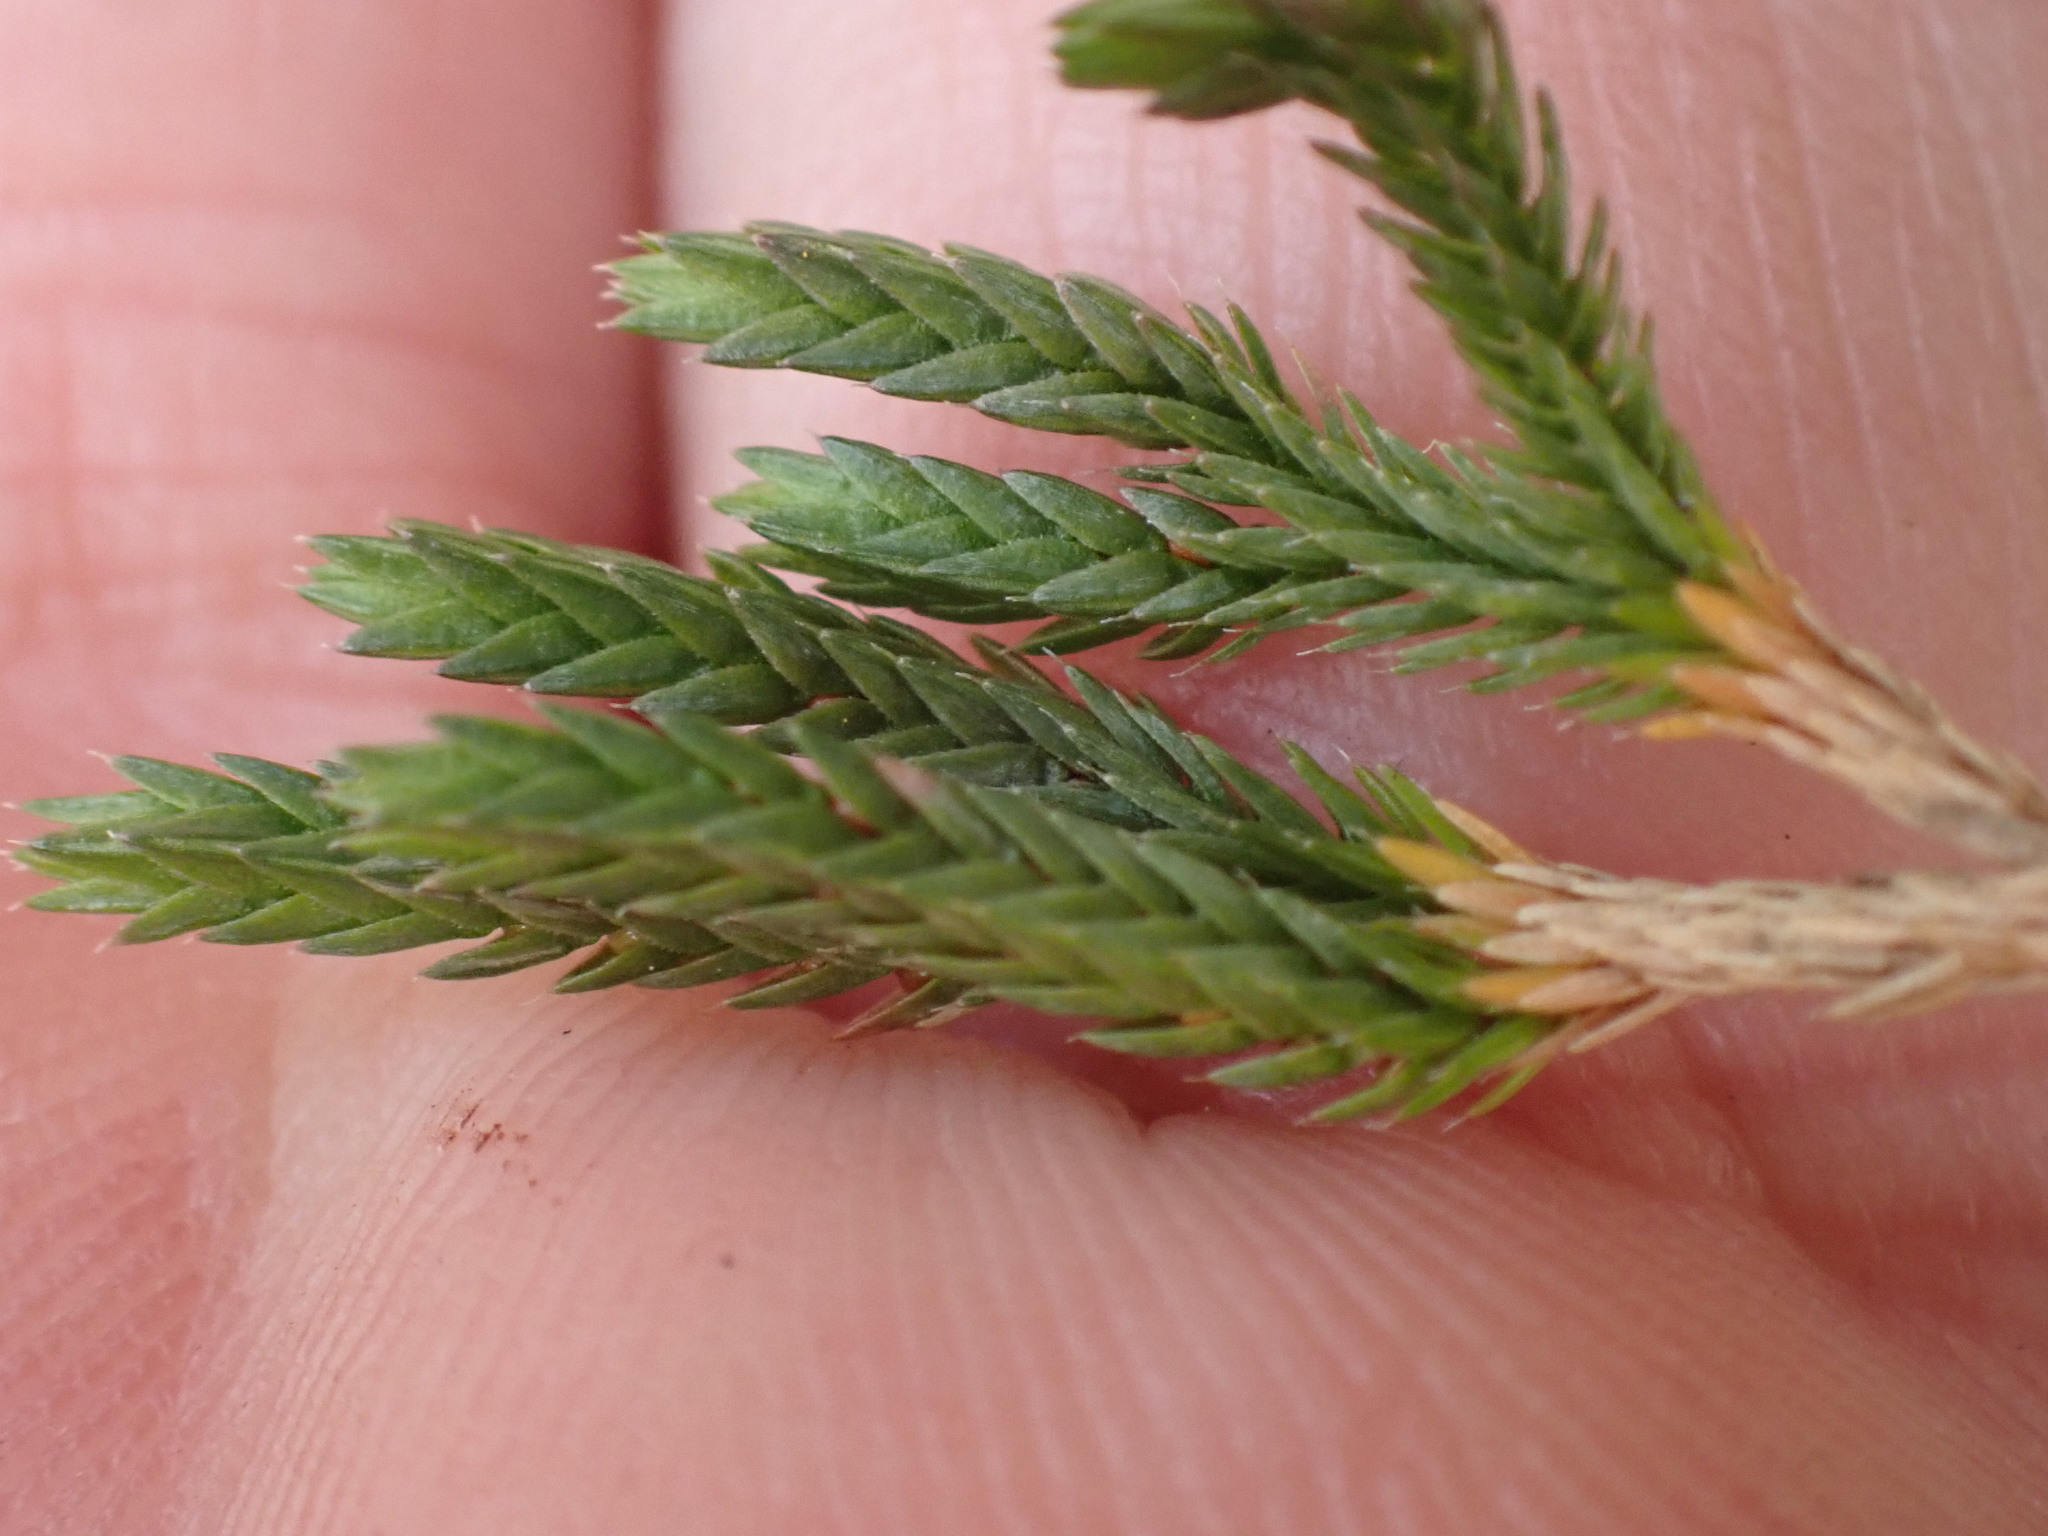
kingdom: Plantae
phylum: Tracheophyta
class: Lycopodiopsida
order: Selaginellales
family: Selaginellaceae
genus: Selaginella
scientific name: Selaginella wallacei
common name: Wallace's selaginella
